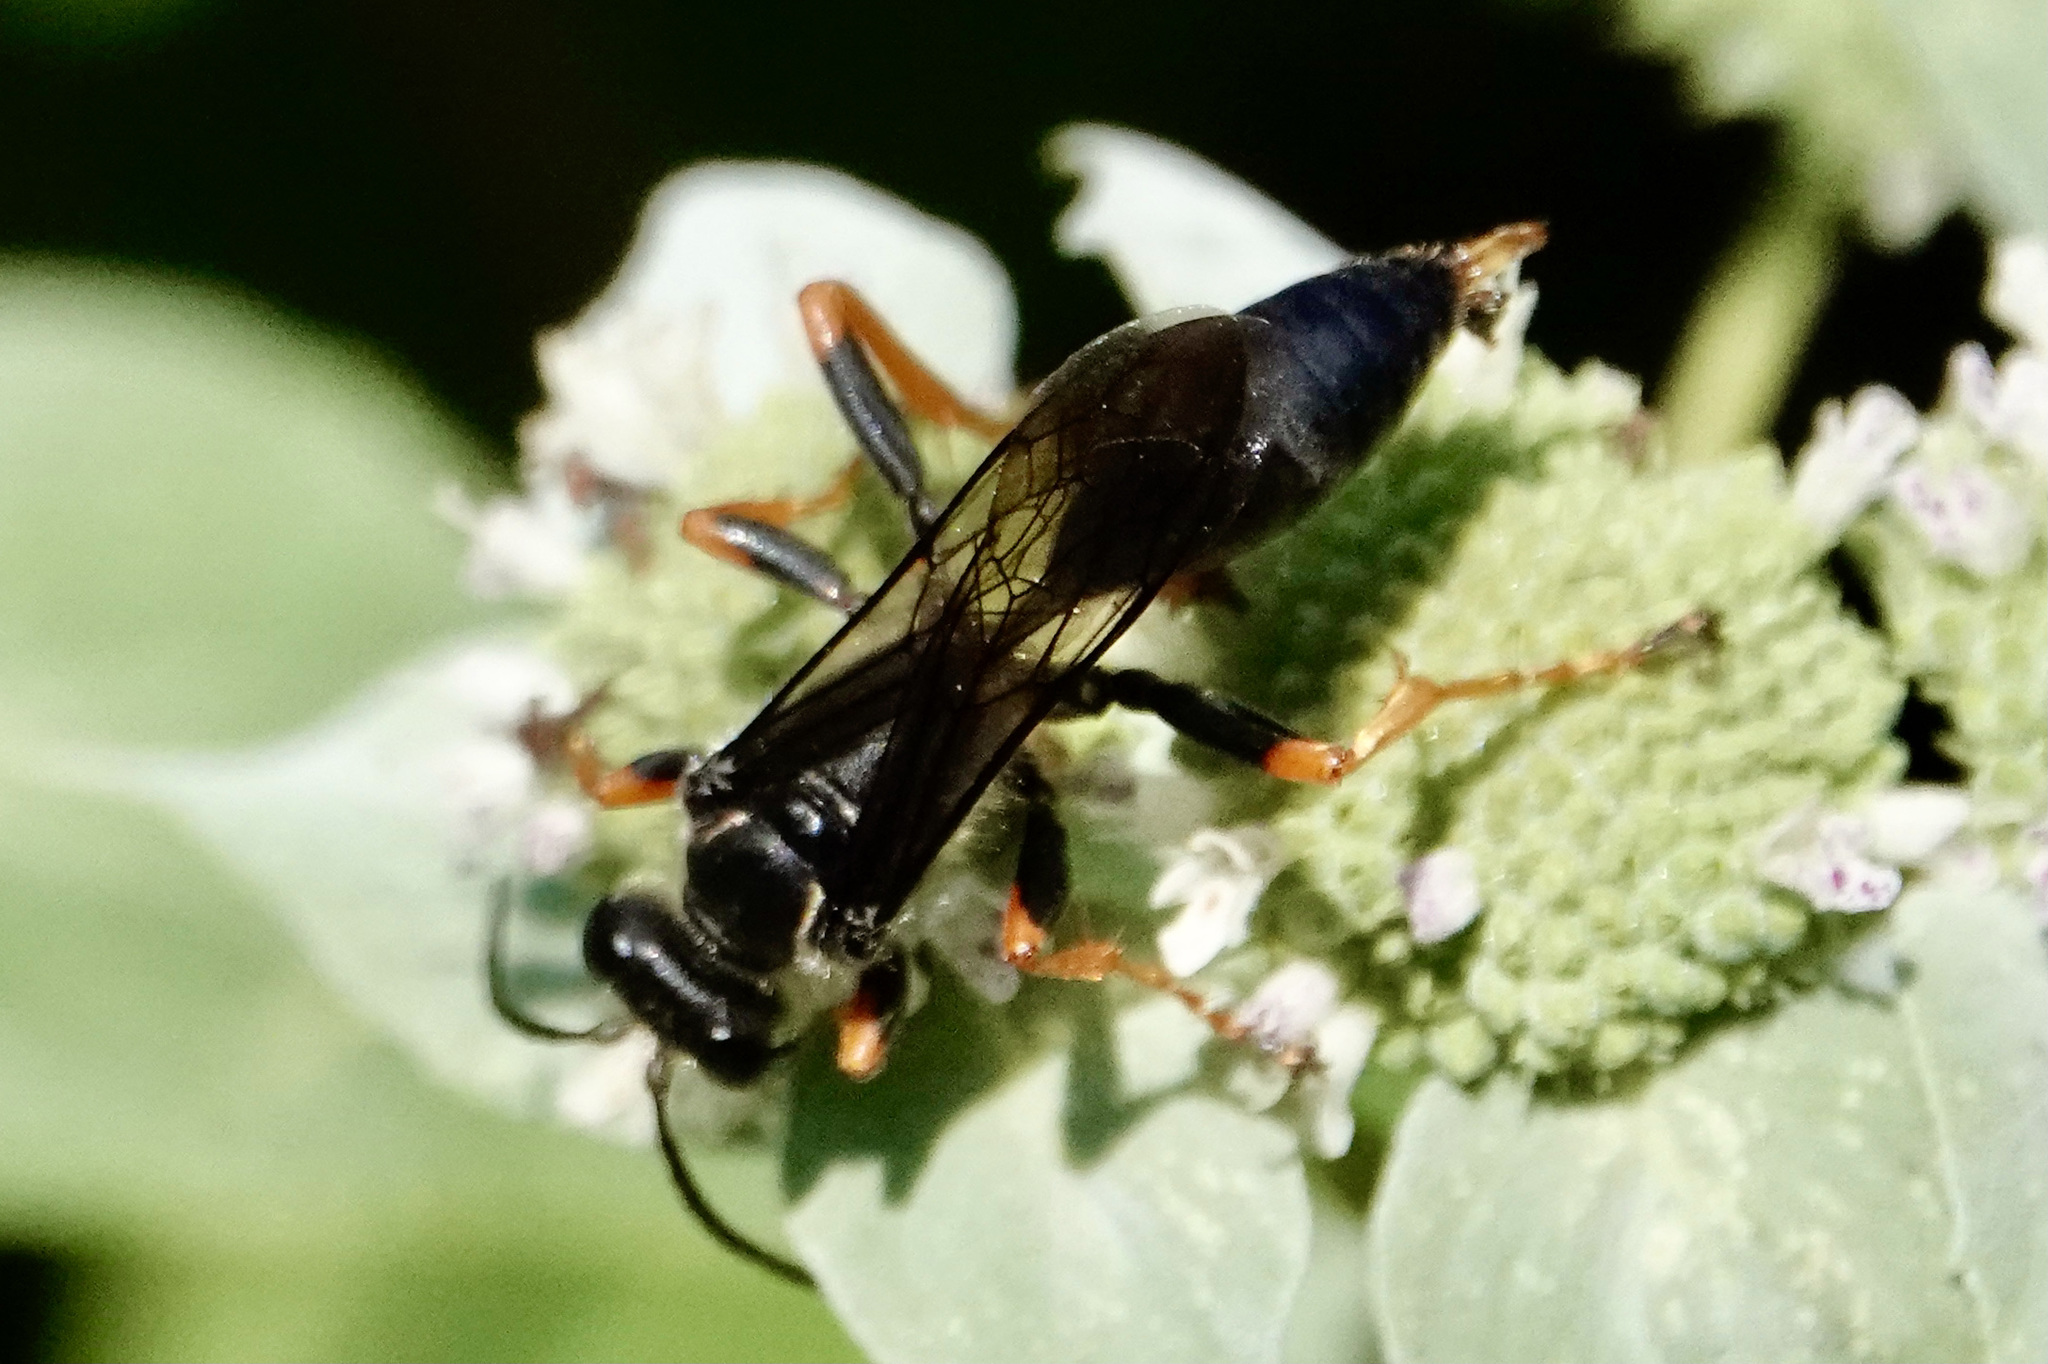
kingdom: Animalia
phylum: Arthropoda
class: Insecta
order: Hymenoptera
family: Sphecidae
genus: Sphex
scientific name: Sphex nudus
